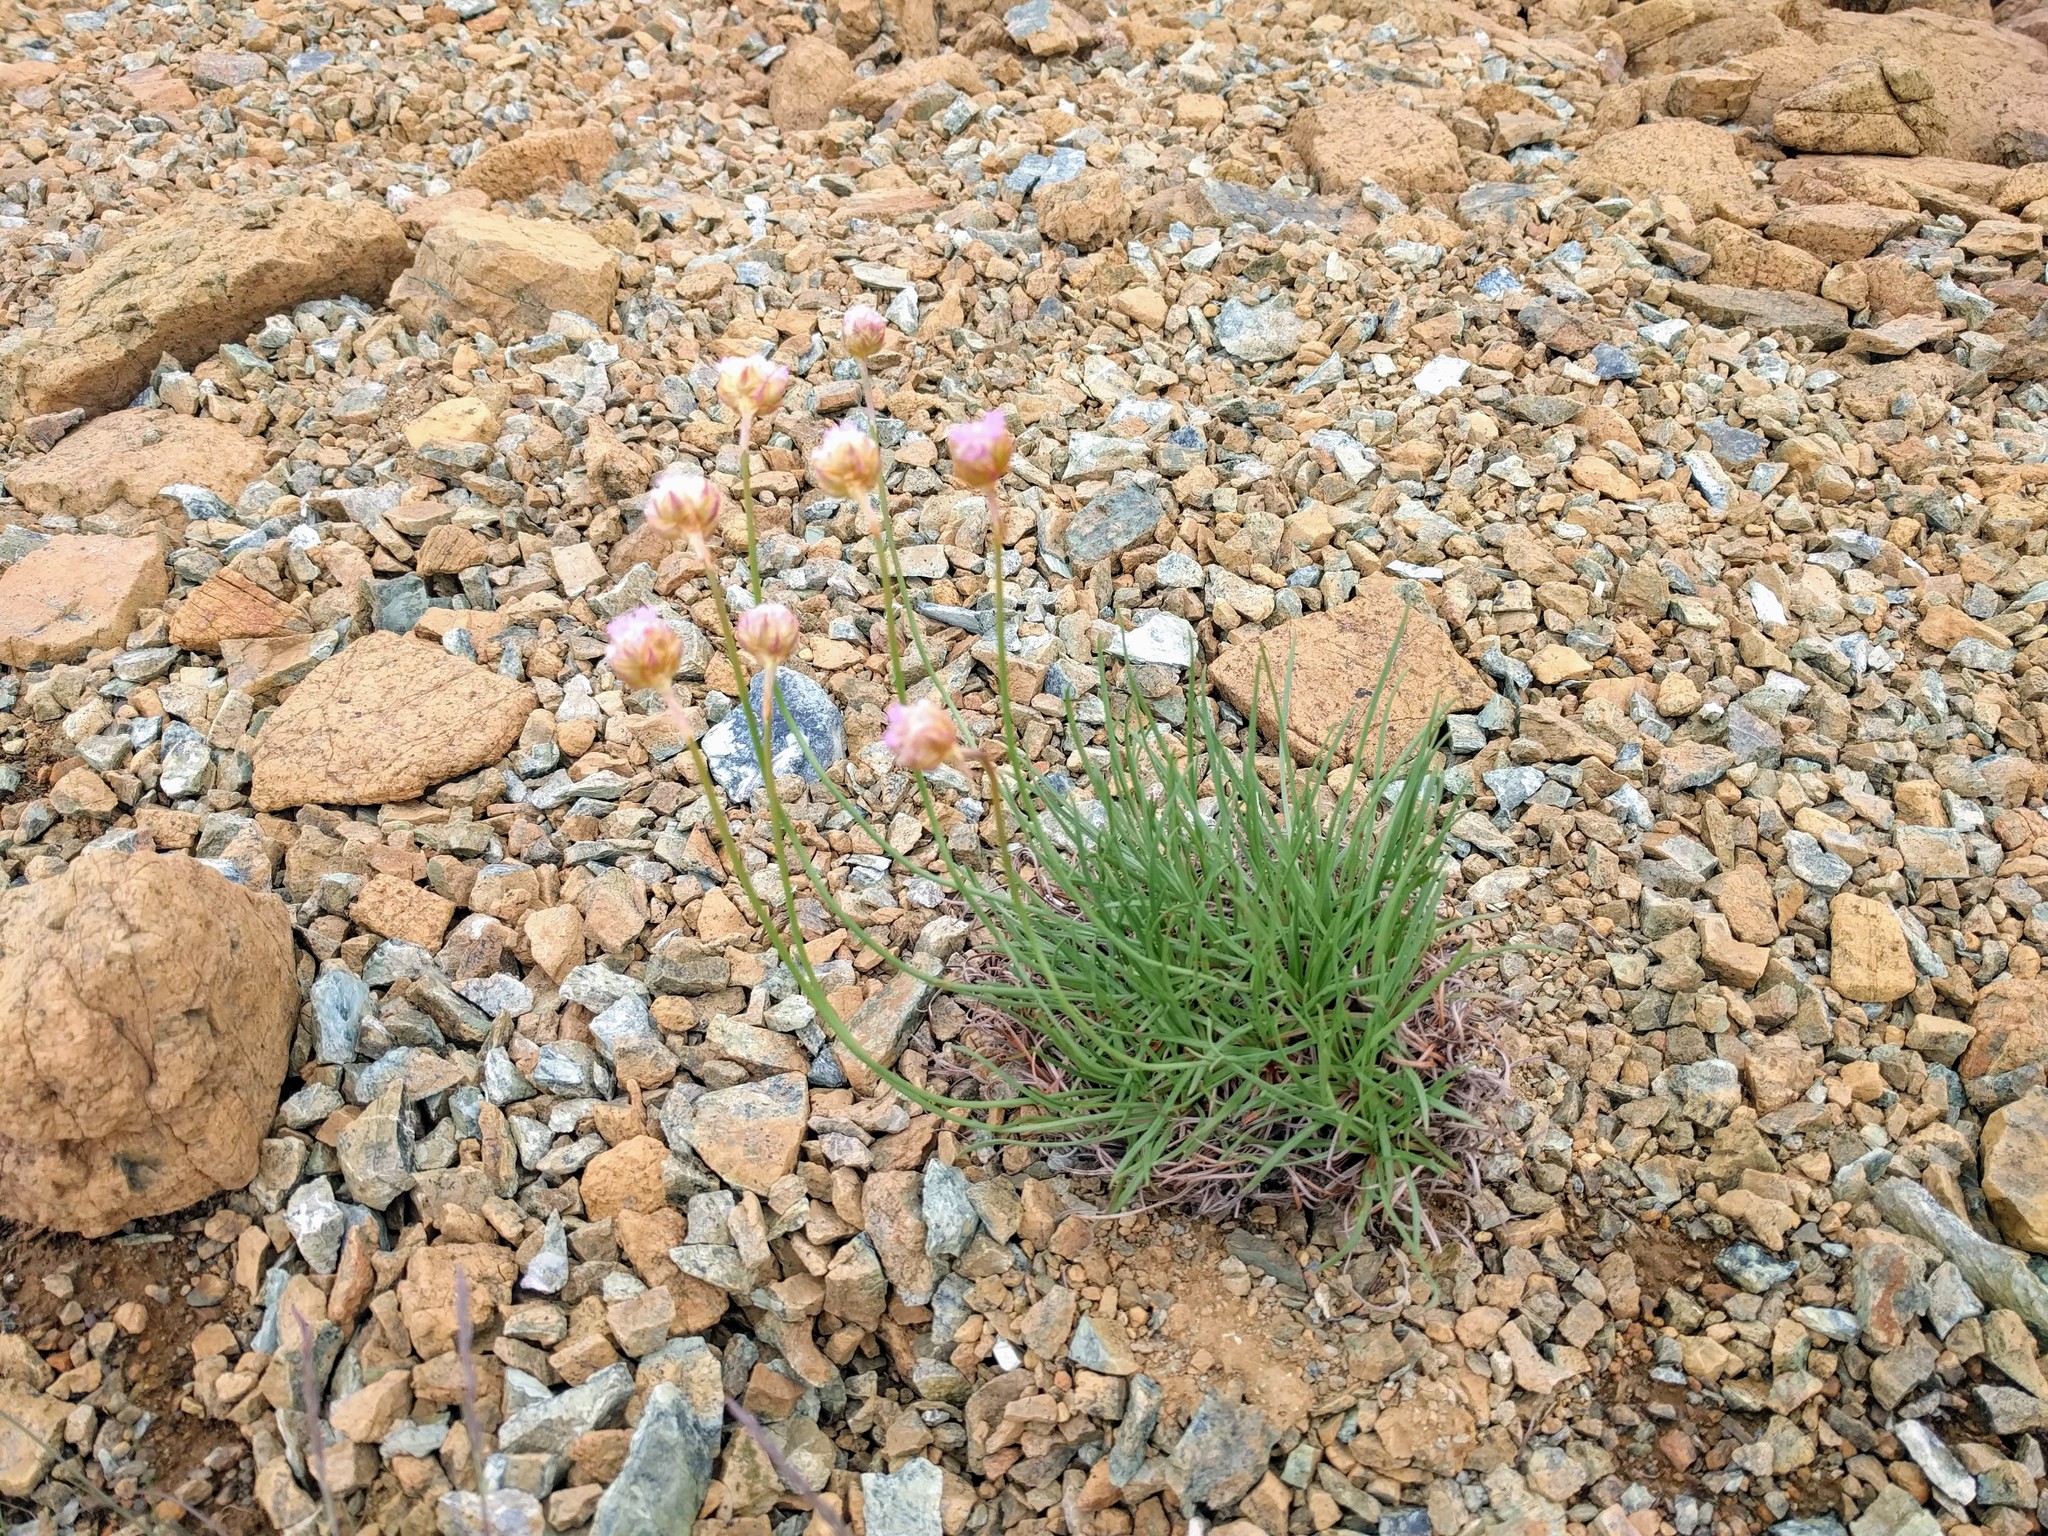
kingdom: Plantae
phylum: Tracheophyta
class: Magnoliopsida
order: Caryophyllales
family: Plumbaginaceae
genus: Armeria
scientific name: Armeria maritima
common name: Thrift
